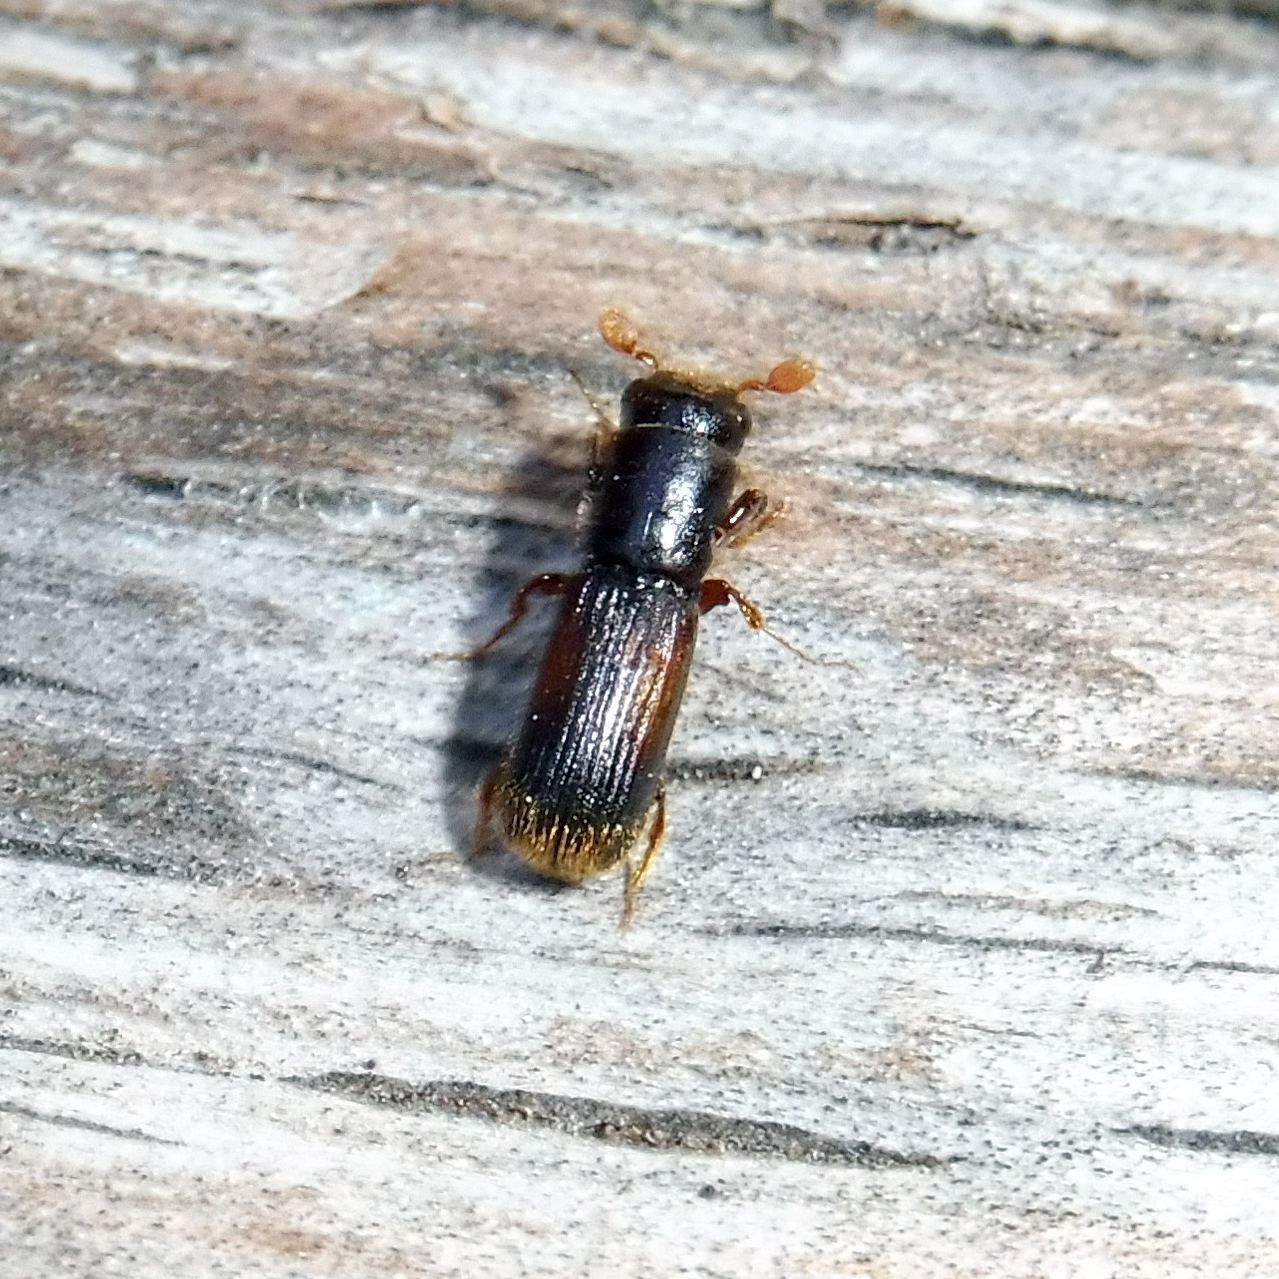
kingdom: Animalia
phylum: Arthropoda
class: Insecta
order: Coleoptera
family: Curculionidae
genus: Platypus
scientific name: Platypus cylindrus
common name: Pinhole borer
